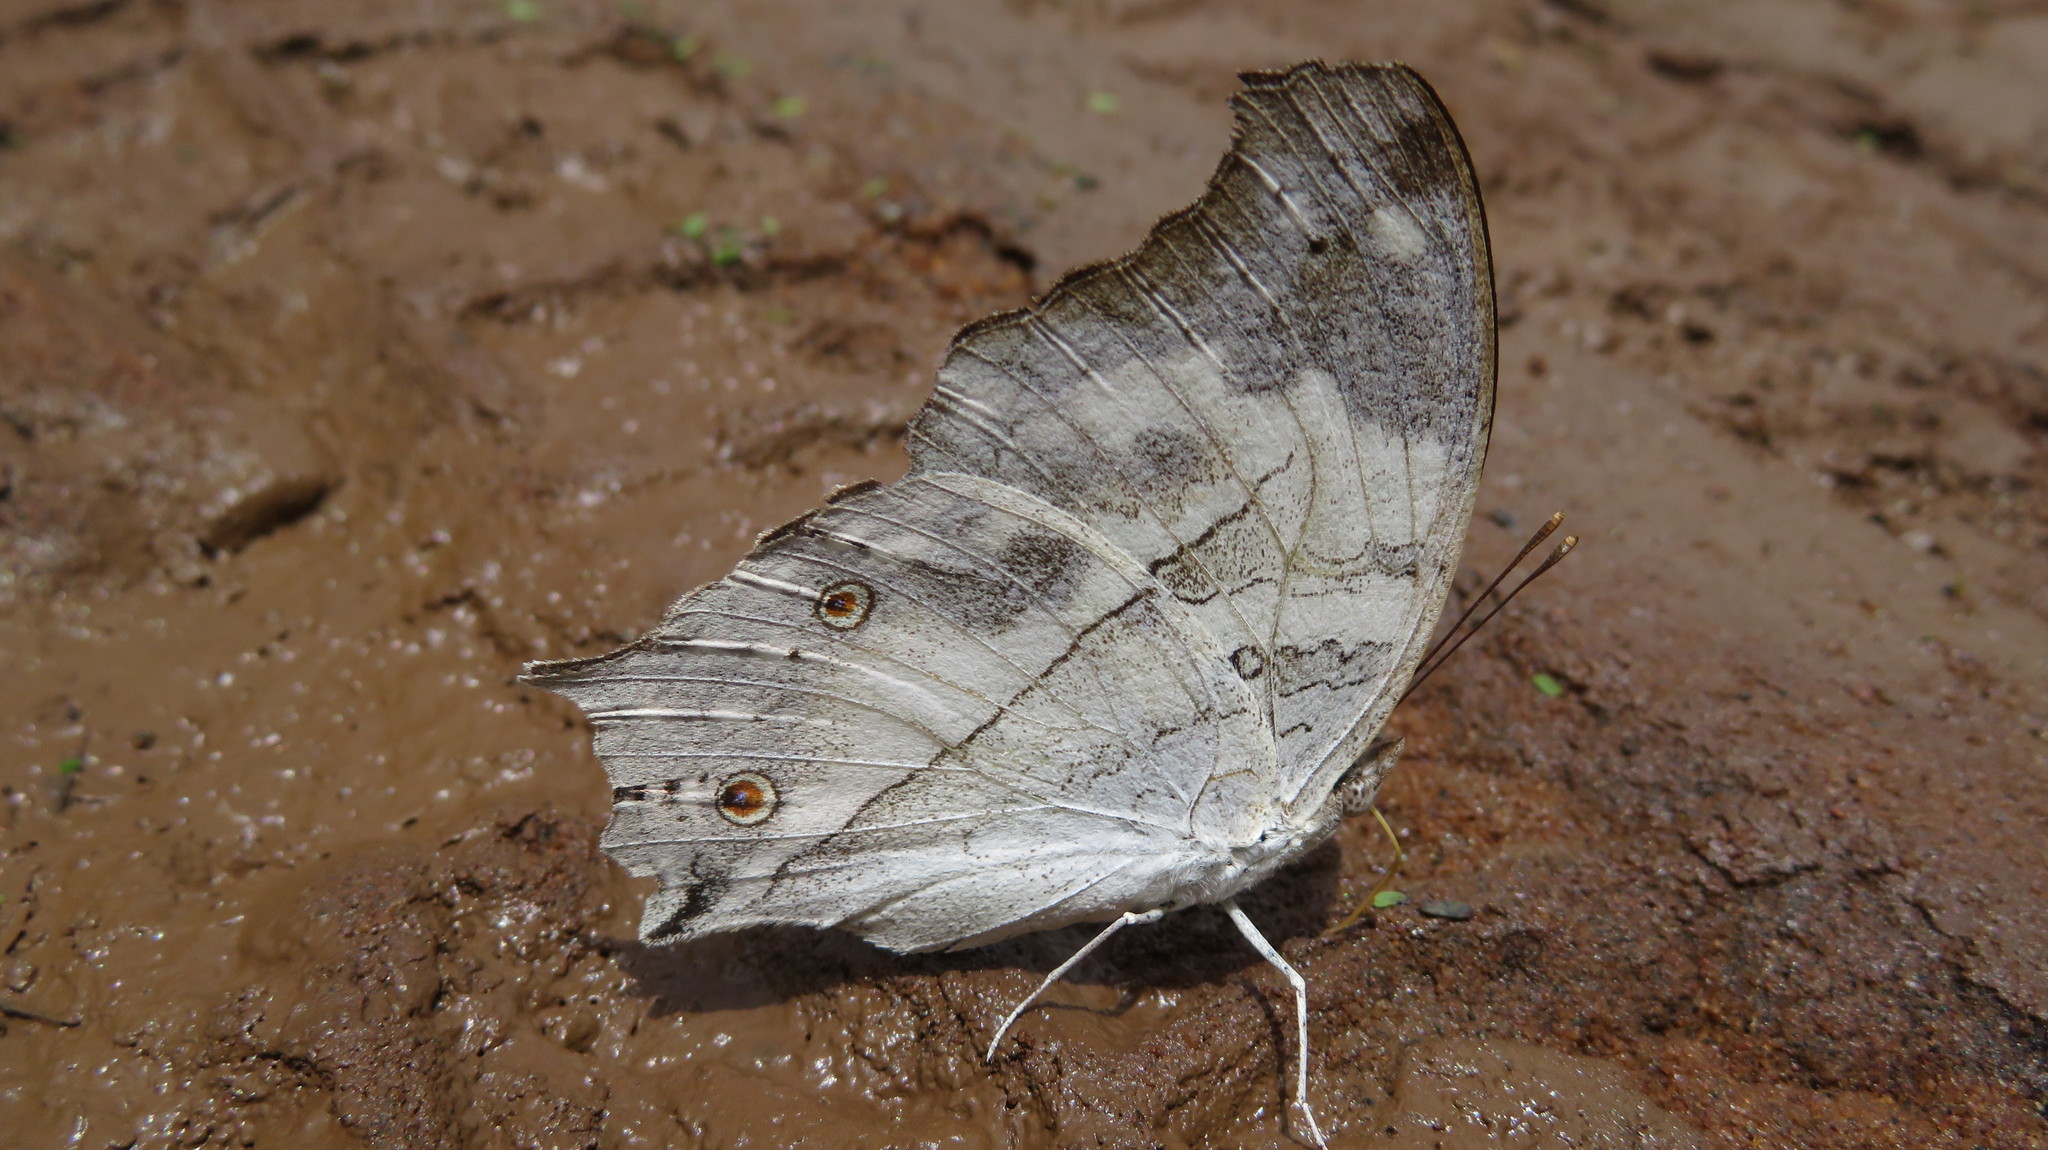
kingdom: Animalia
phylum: Arthropoda
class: Insecta
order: Lepidoptera
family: Nymphalidae
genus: Salamis
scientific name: Salamis
